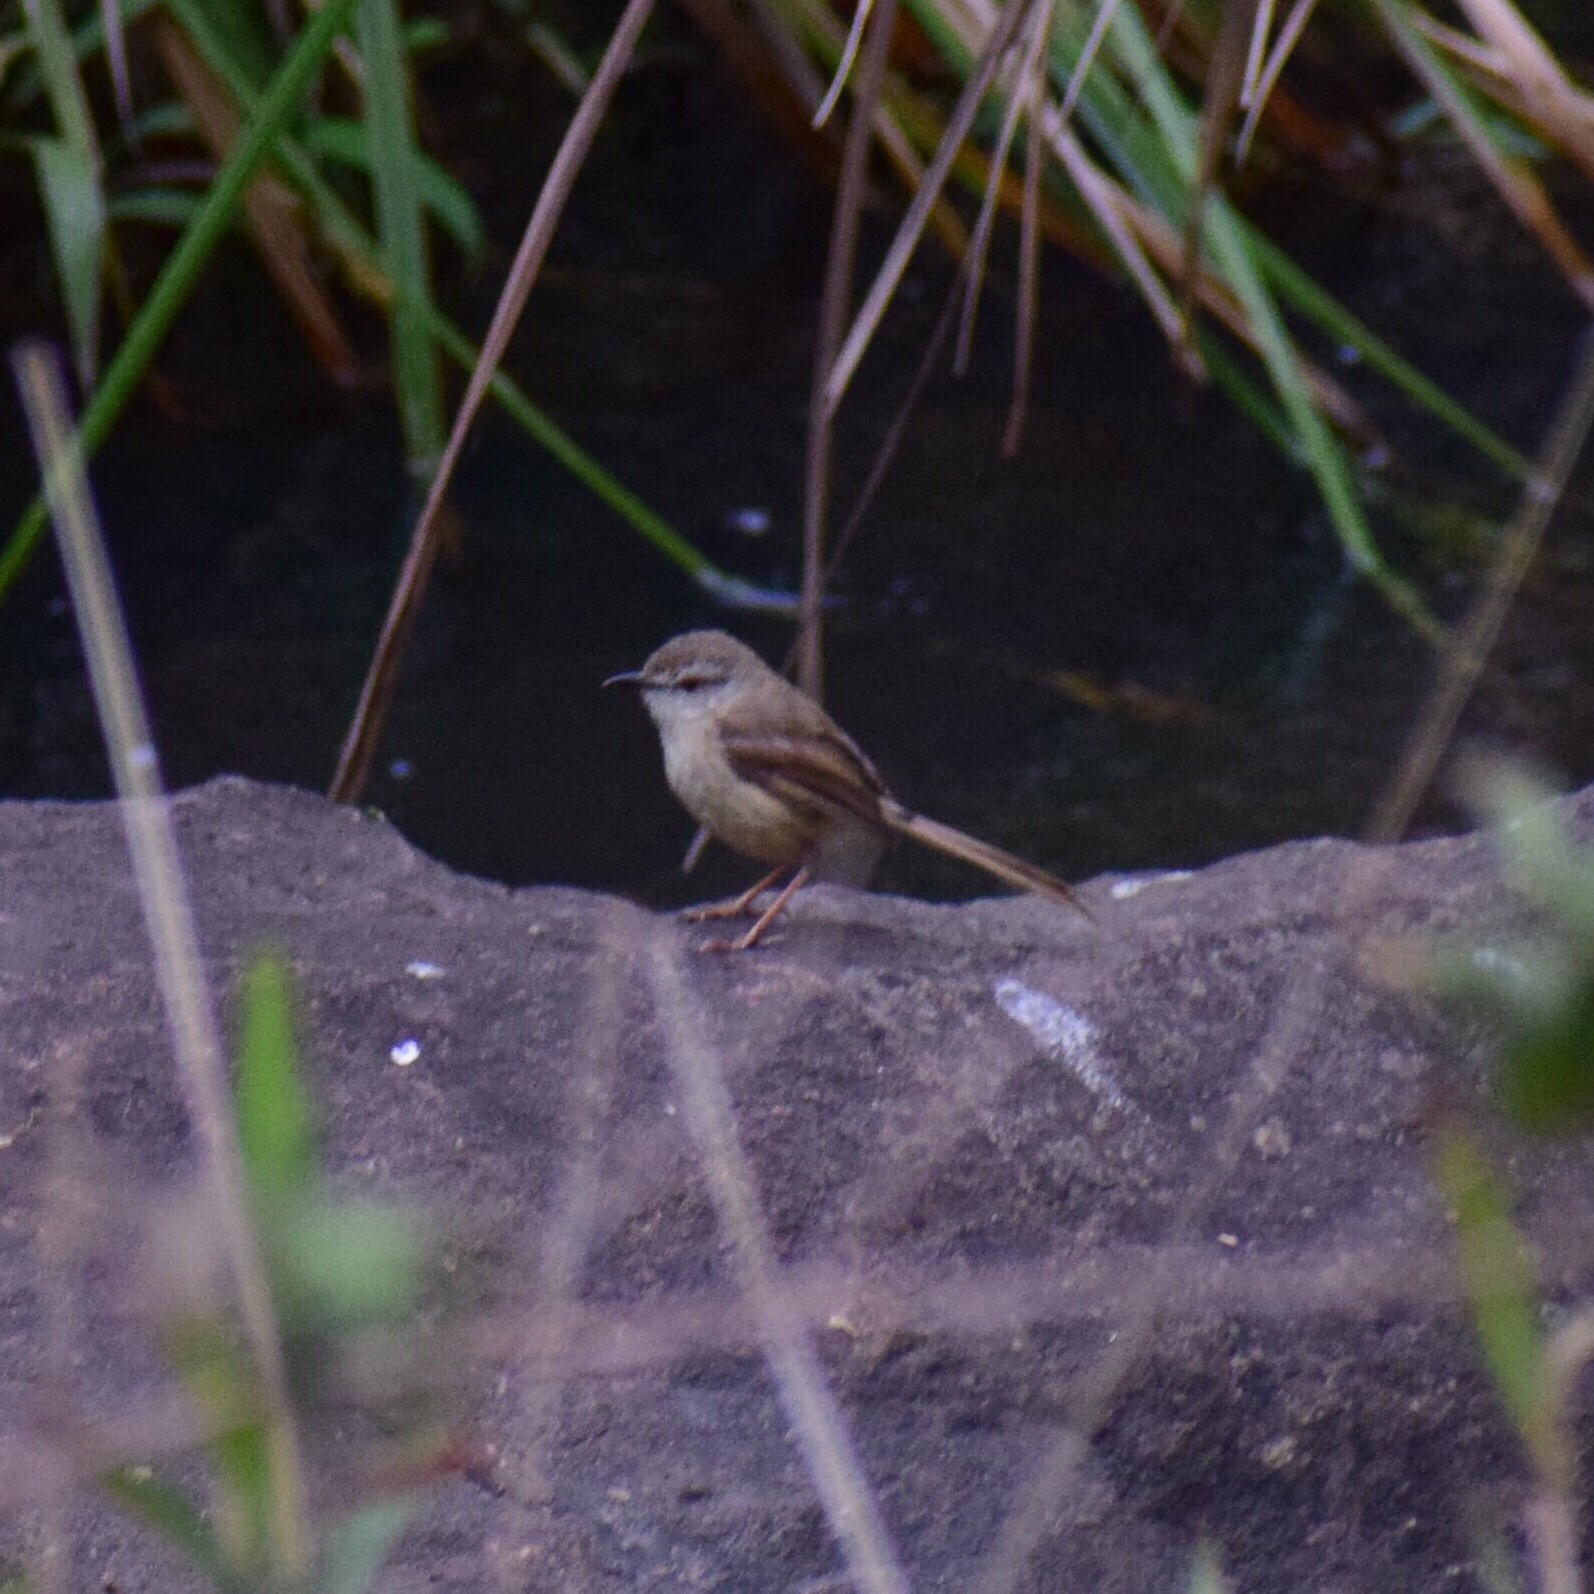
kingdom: Animalia
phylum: Chordata
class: Aves
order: Passeriformes
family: Cisticolidae
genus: Prinia
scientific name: Prinia subflava
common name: Tawny-flanked prinia
